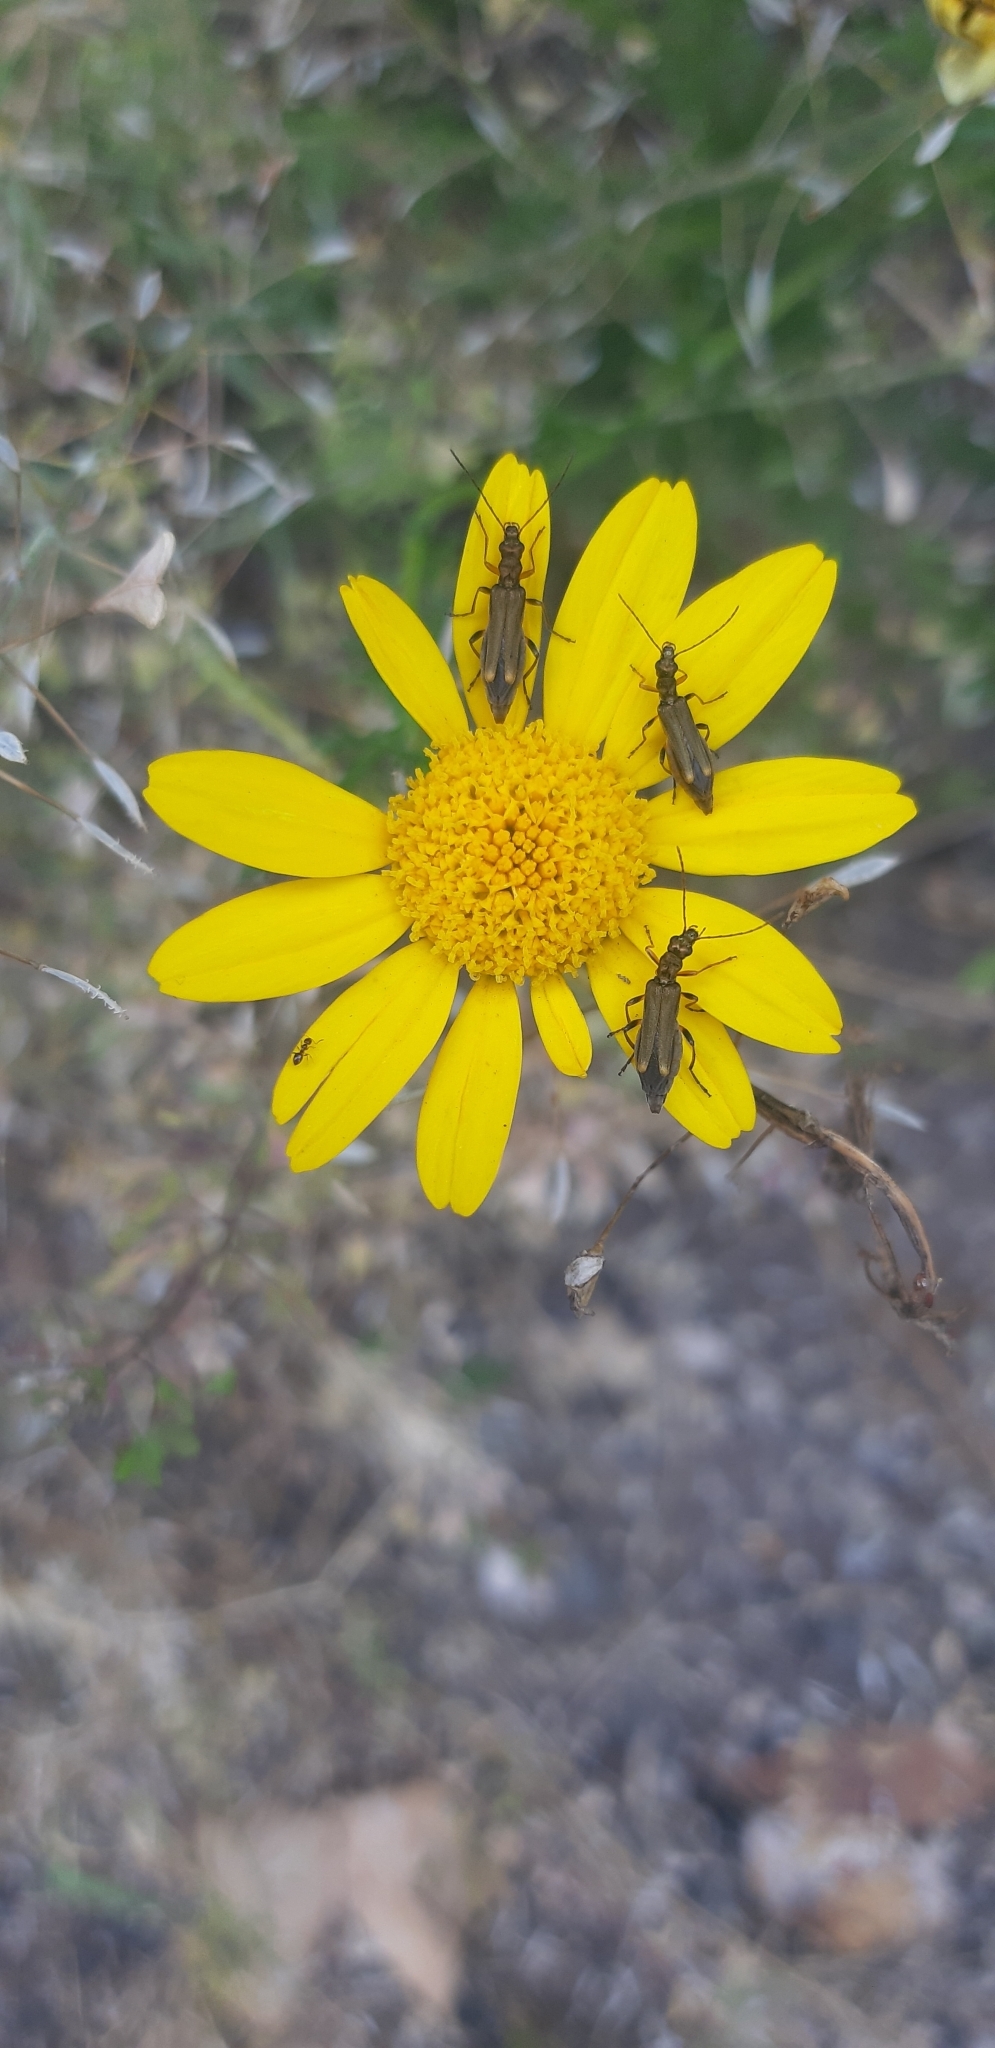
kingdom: Animalia
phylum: Arthropoda
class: Insecta
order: Coleoptera
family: Oedemeridae
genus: Oedemera
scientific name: Oedemera barbara
